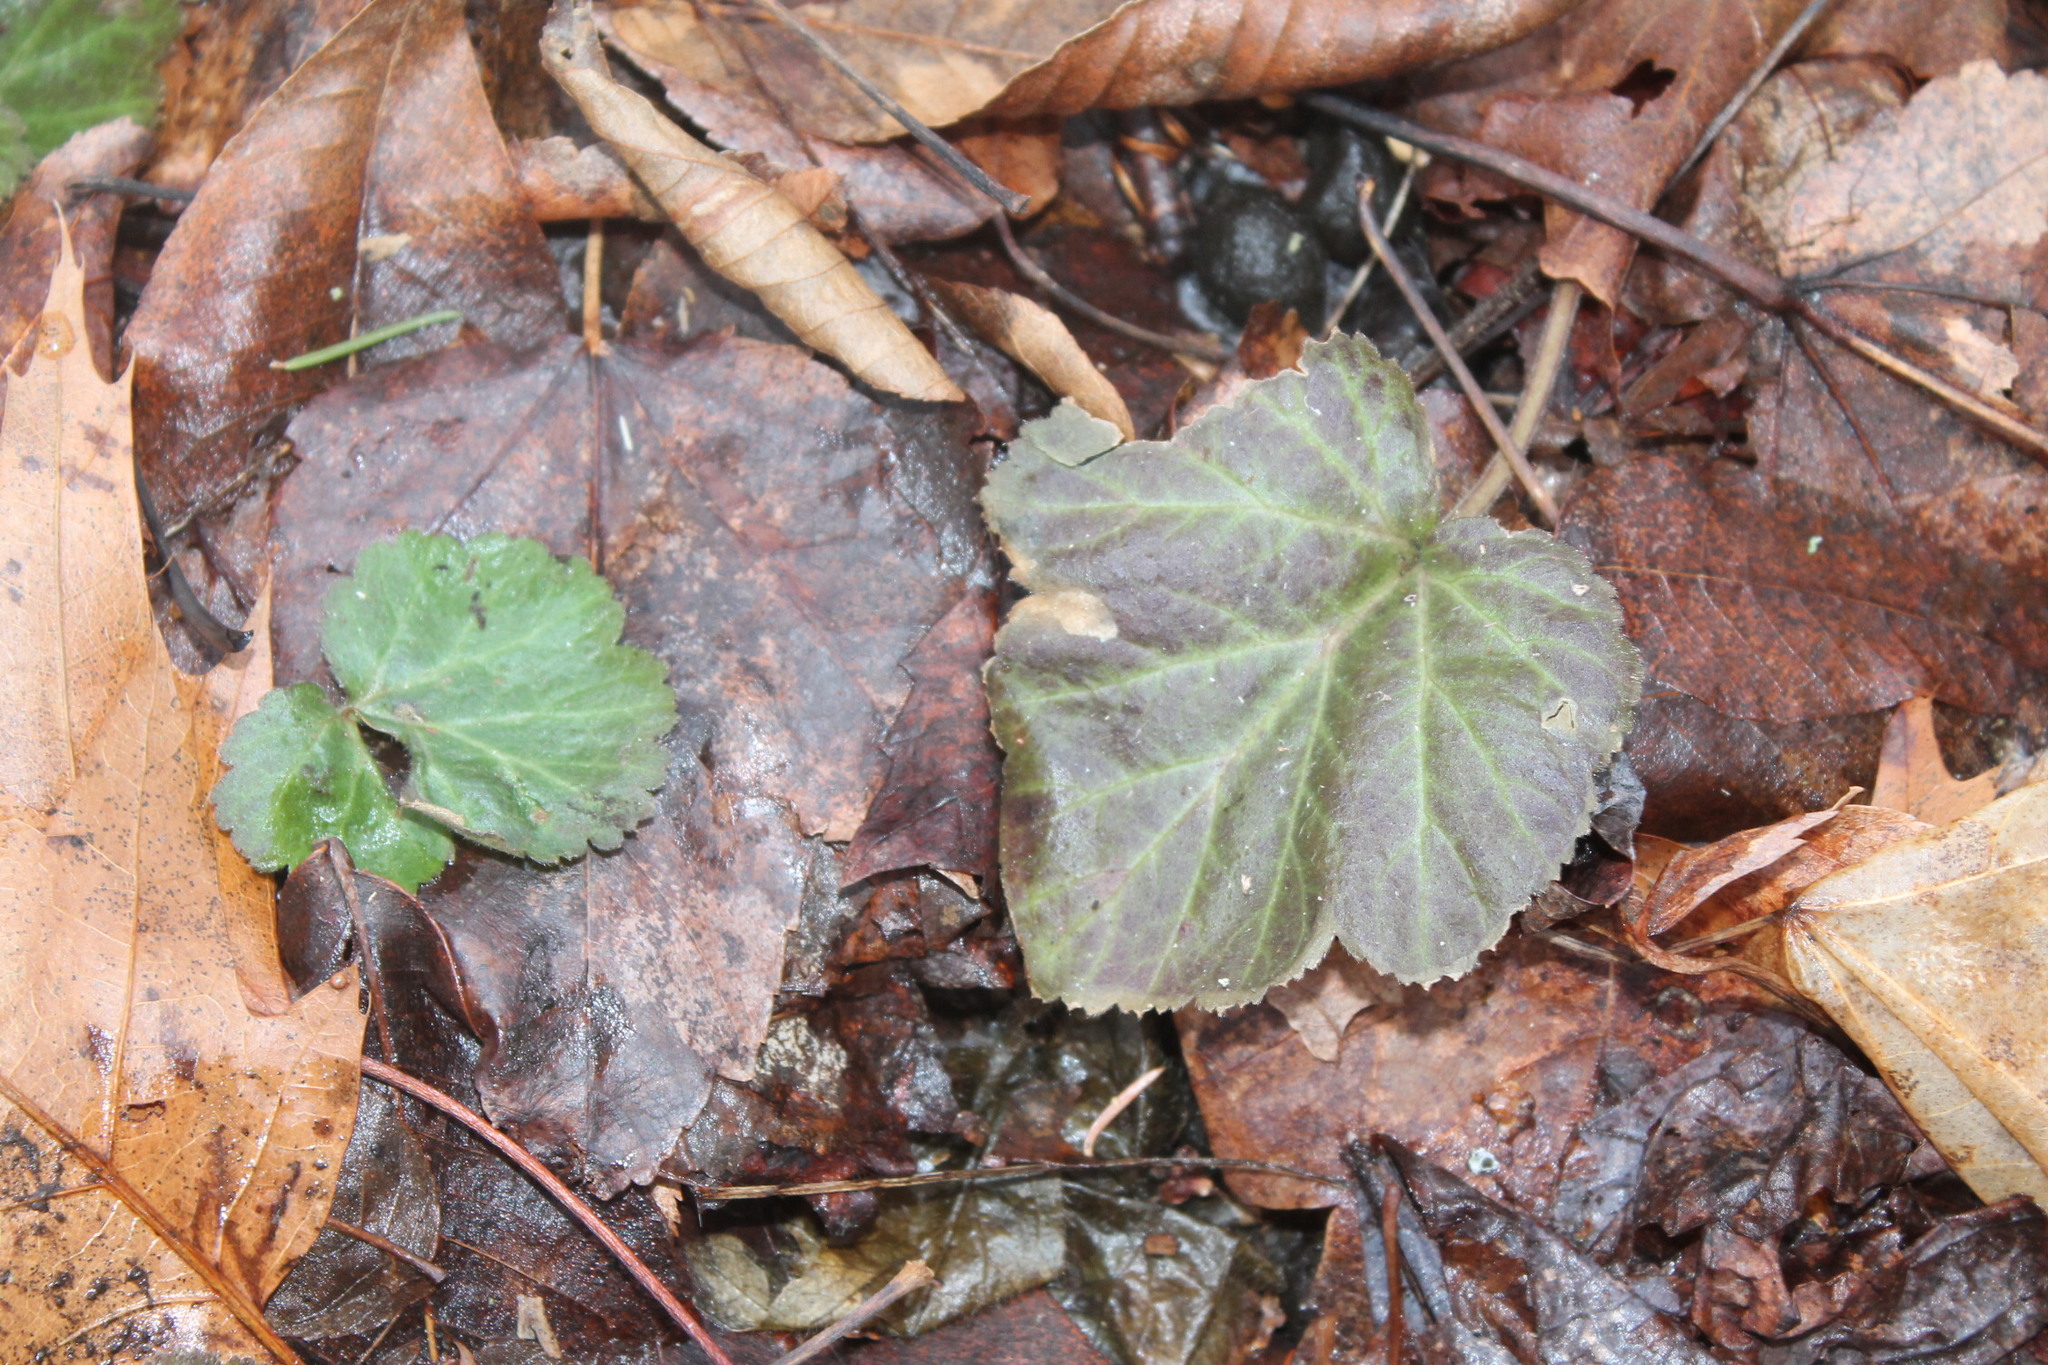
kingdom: Plantae
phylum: Tracheophyta
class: Magnoliopsida
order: Rosales
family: Rosaceae
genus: Geum
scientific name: Geum canadense
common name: White avens
